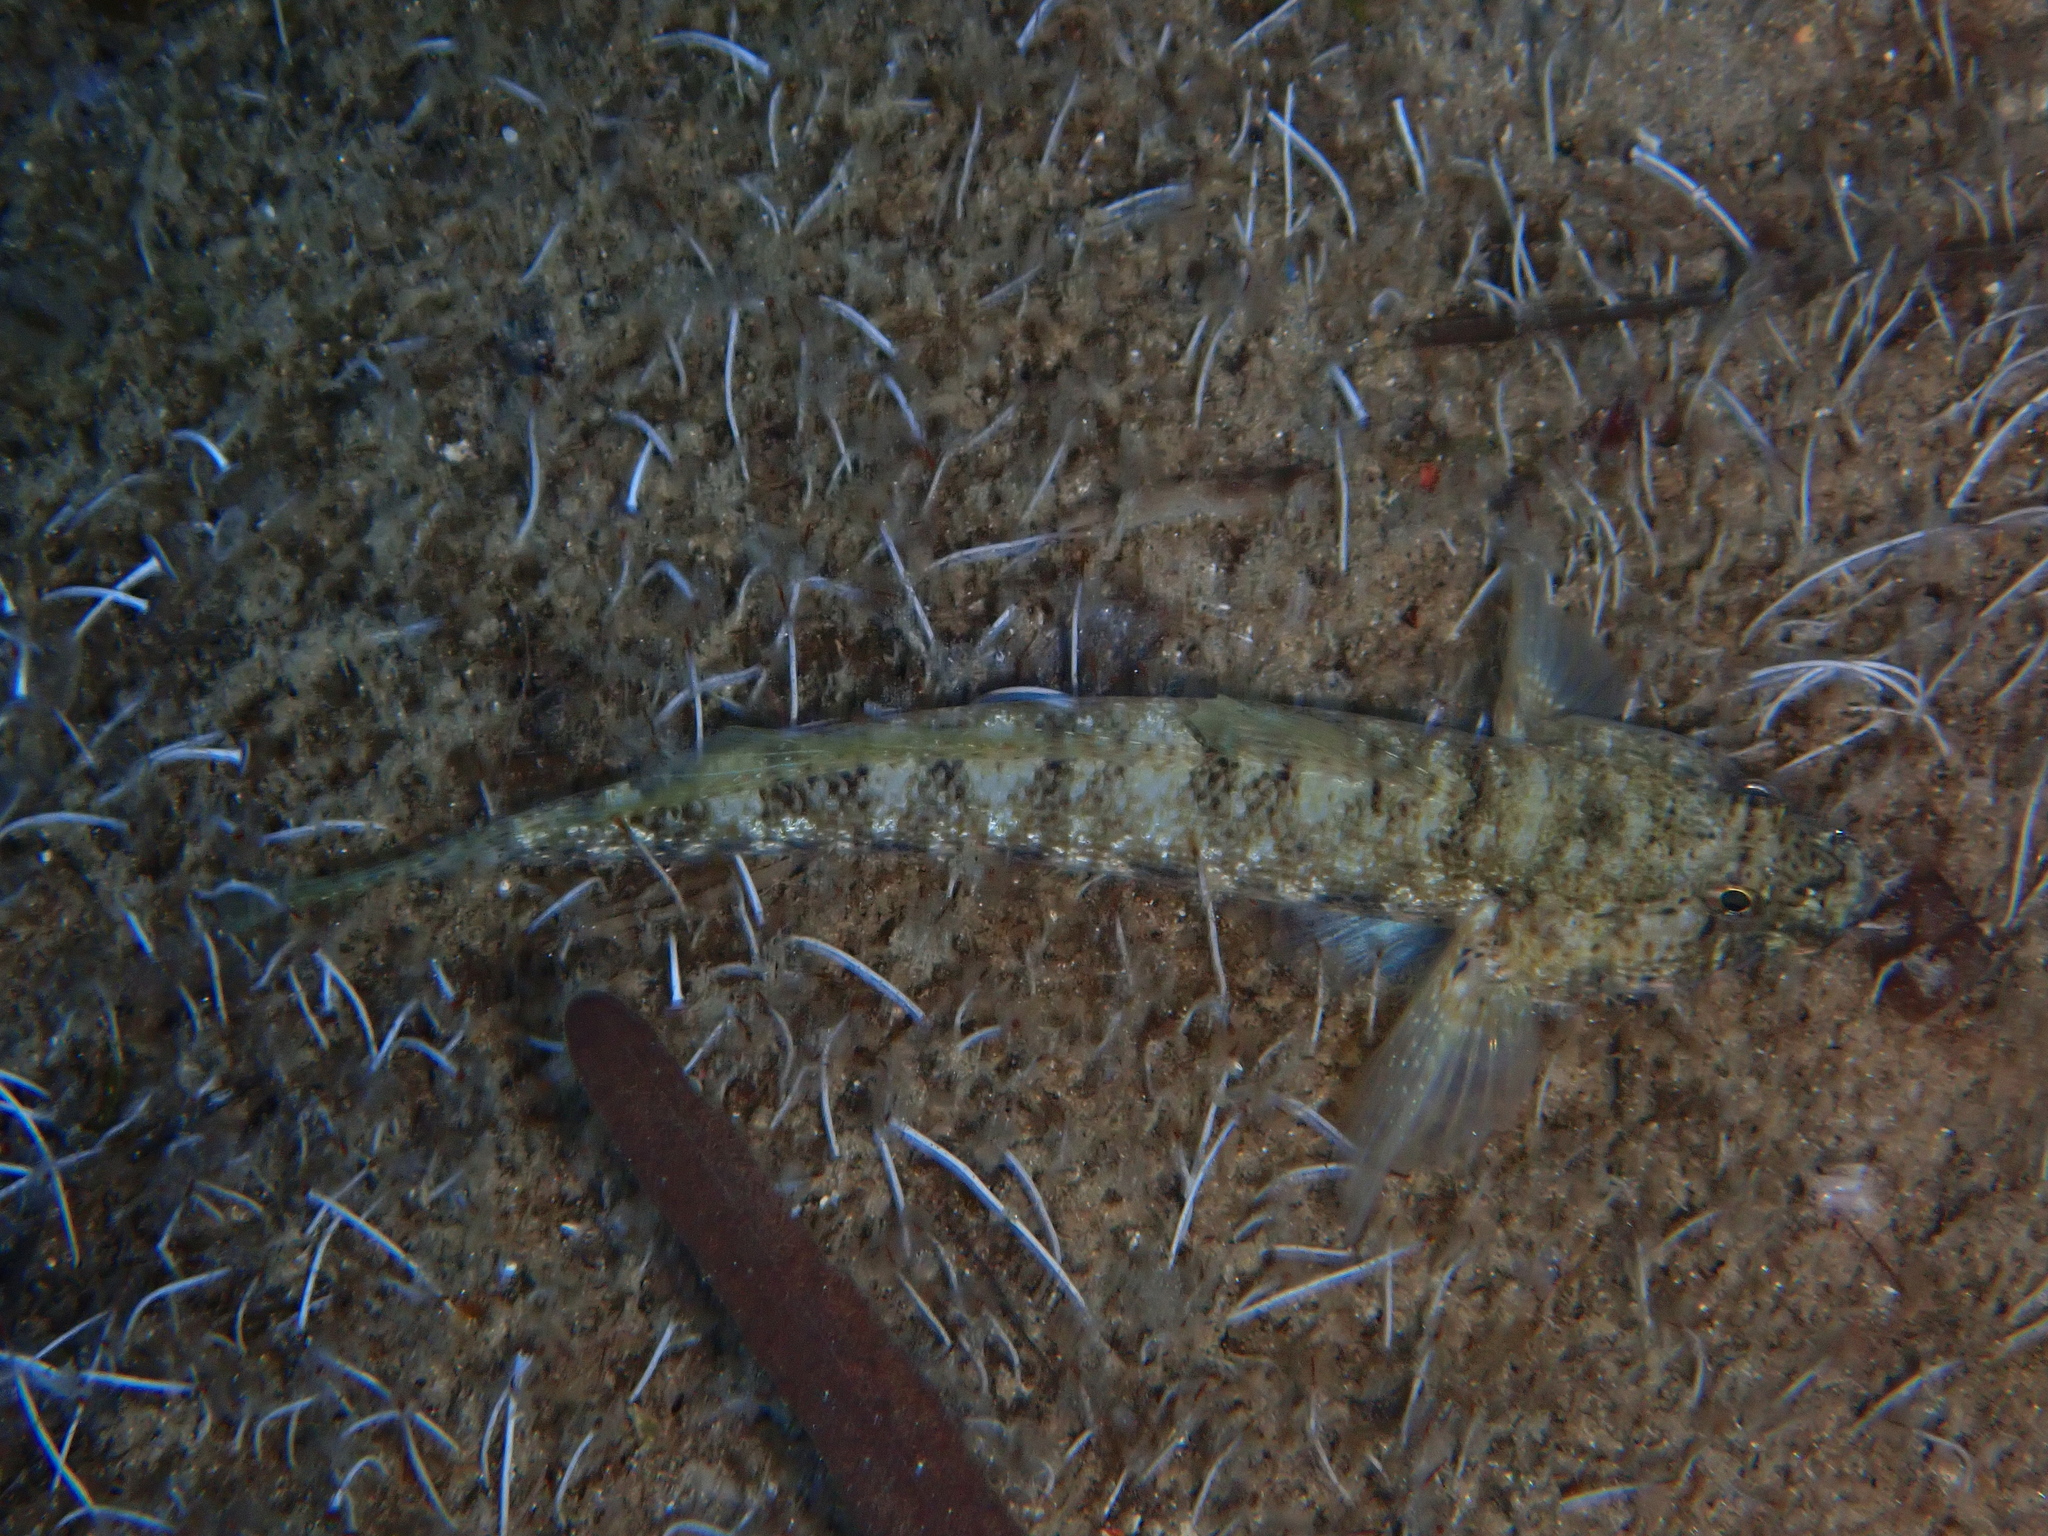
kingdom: Animalia
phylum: Chordata
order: Perciformes
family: Gobiidae
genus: Gobius
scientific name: Gobius incognitus
